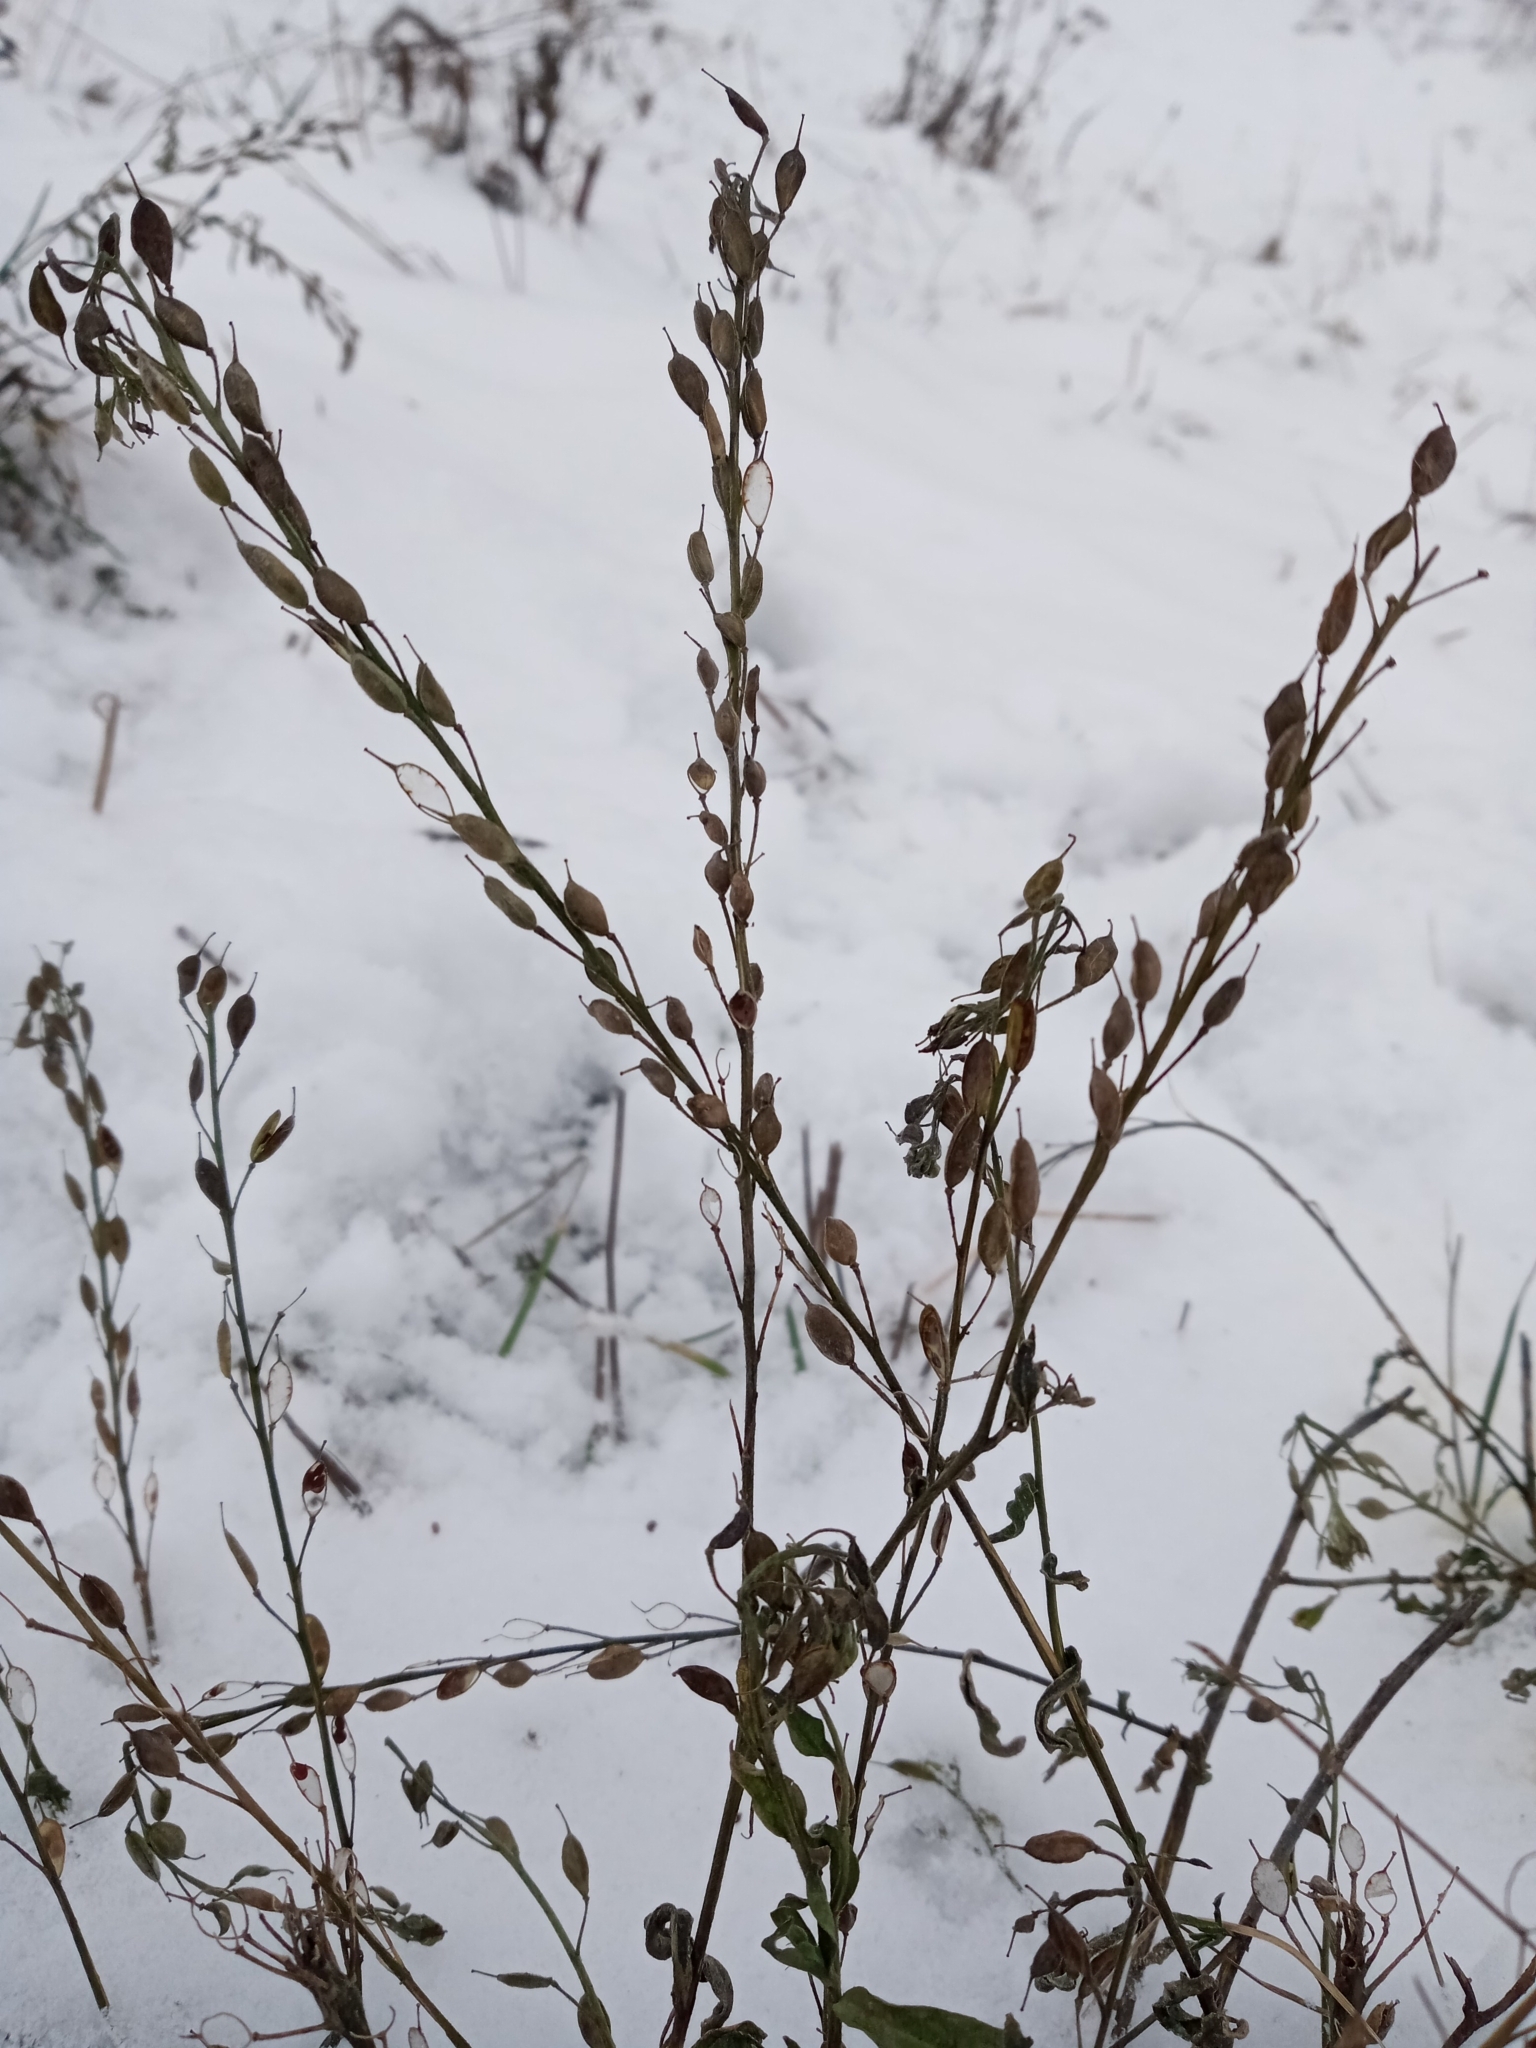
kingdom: Plantae
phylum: Tracheophyta
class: Magnoliopsida
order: Brassicales
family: Brassicaceae
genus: Berteroa
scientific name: Berteroa incana
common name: Hoary alison
